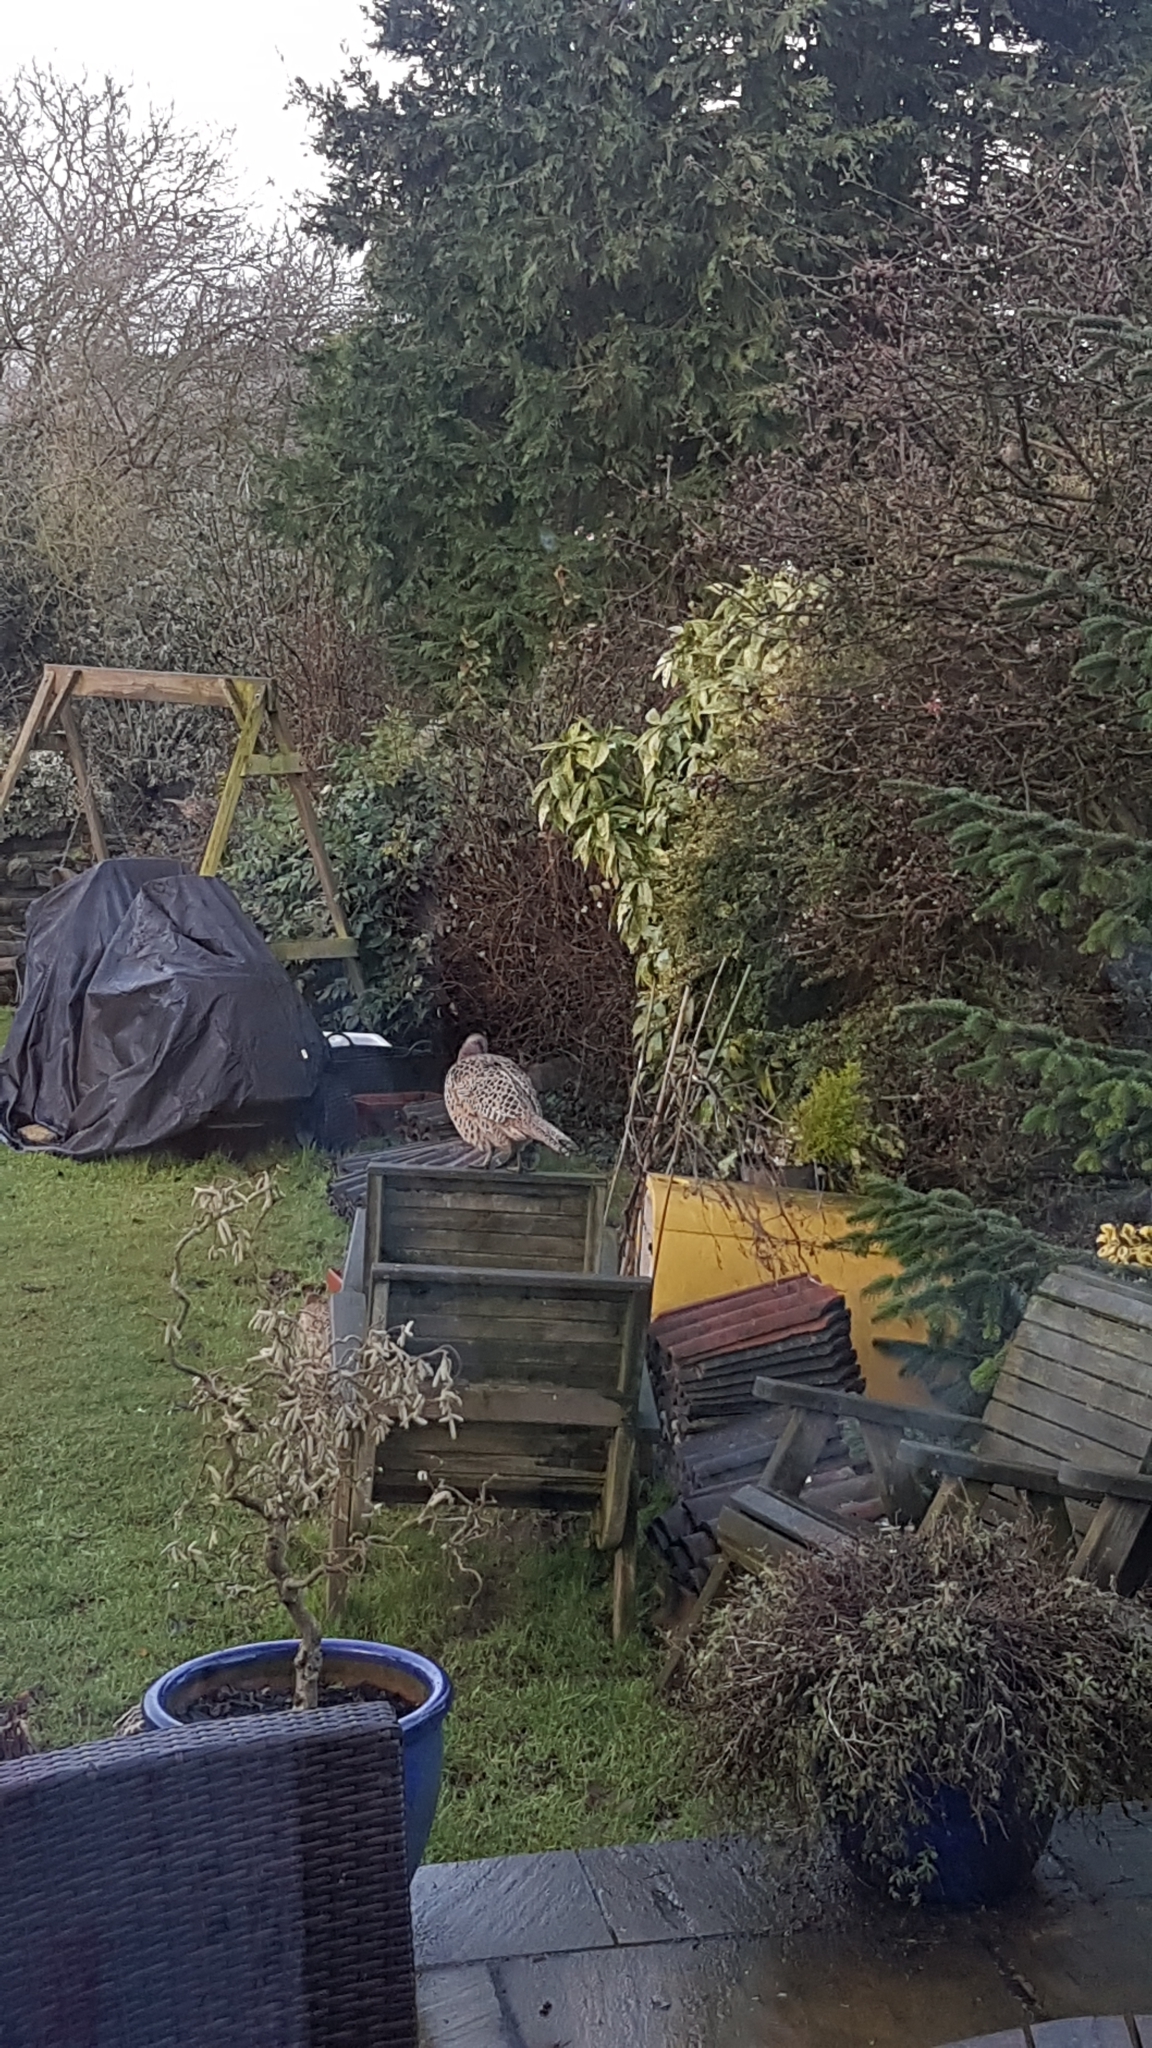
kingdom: Animalia
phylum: Chordata
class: Aves
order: Galliformes
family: Phasianidae
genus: Phasianus
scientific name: Phasianus colchicus
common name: Common pheasant
